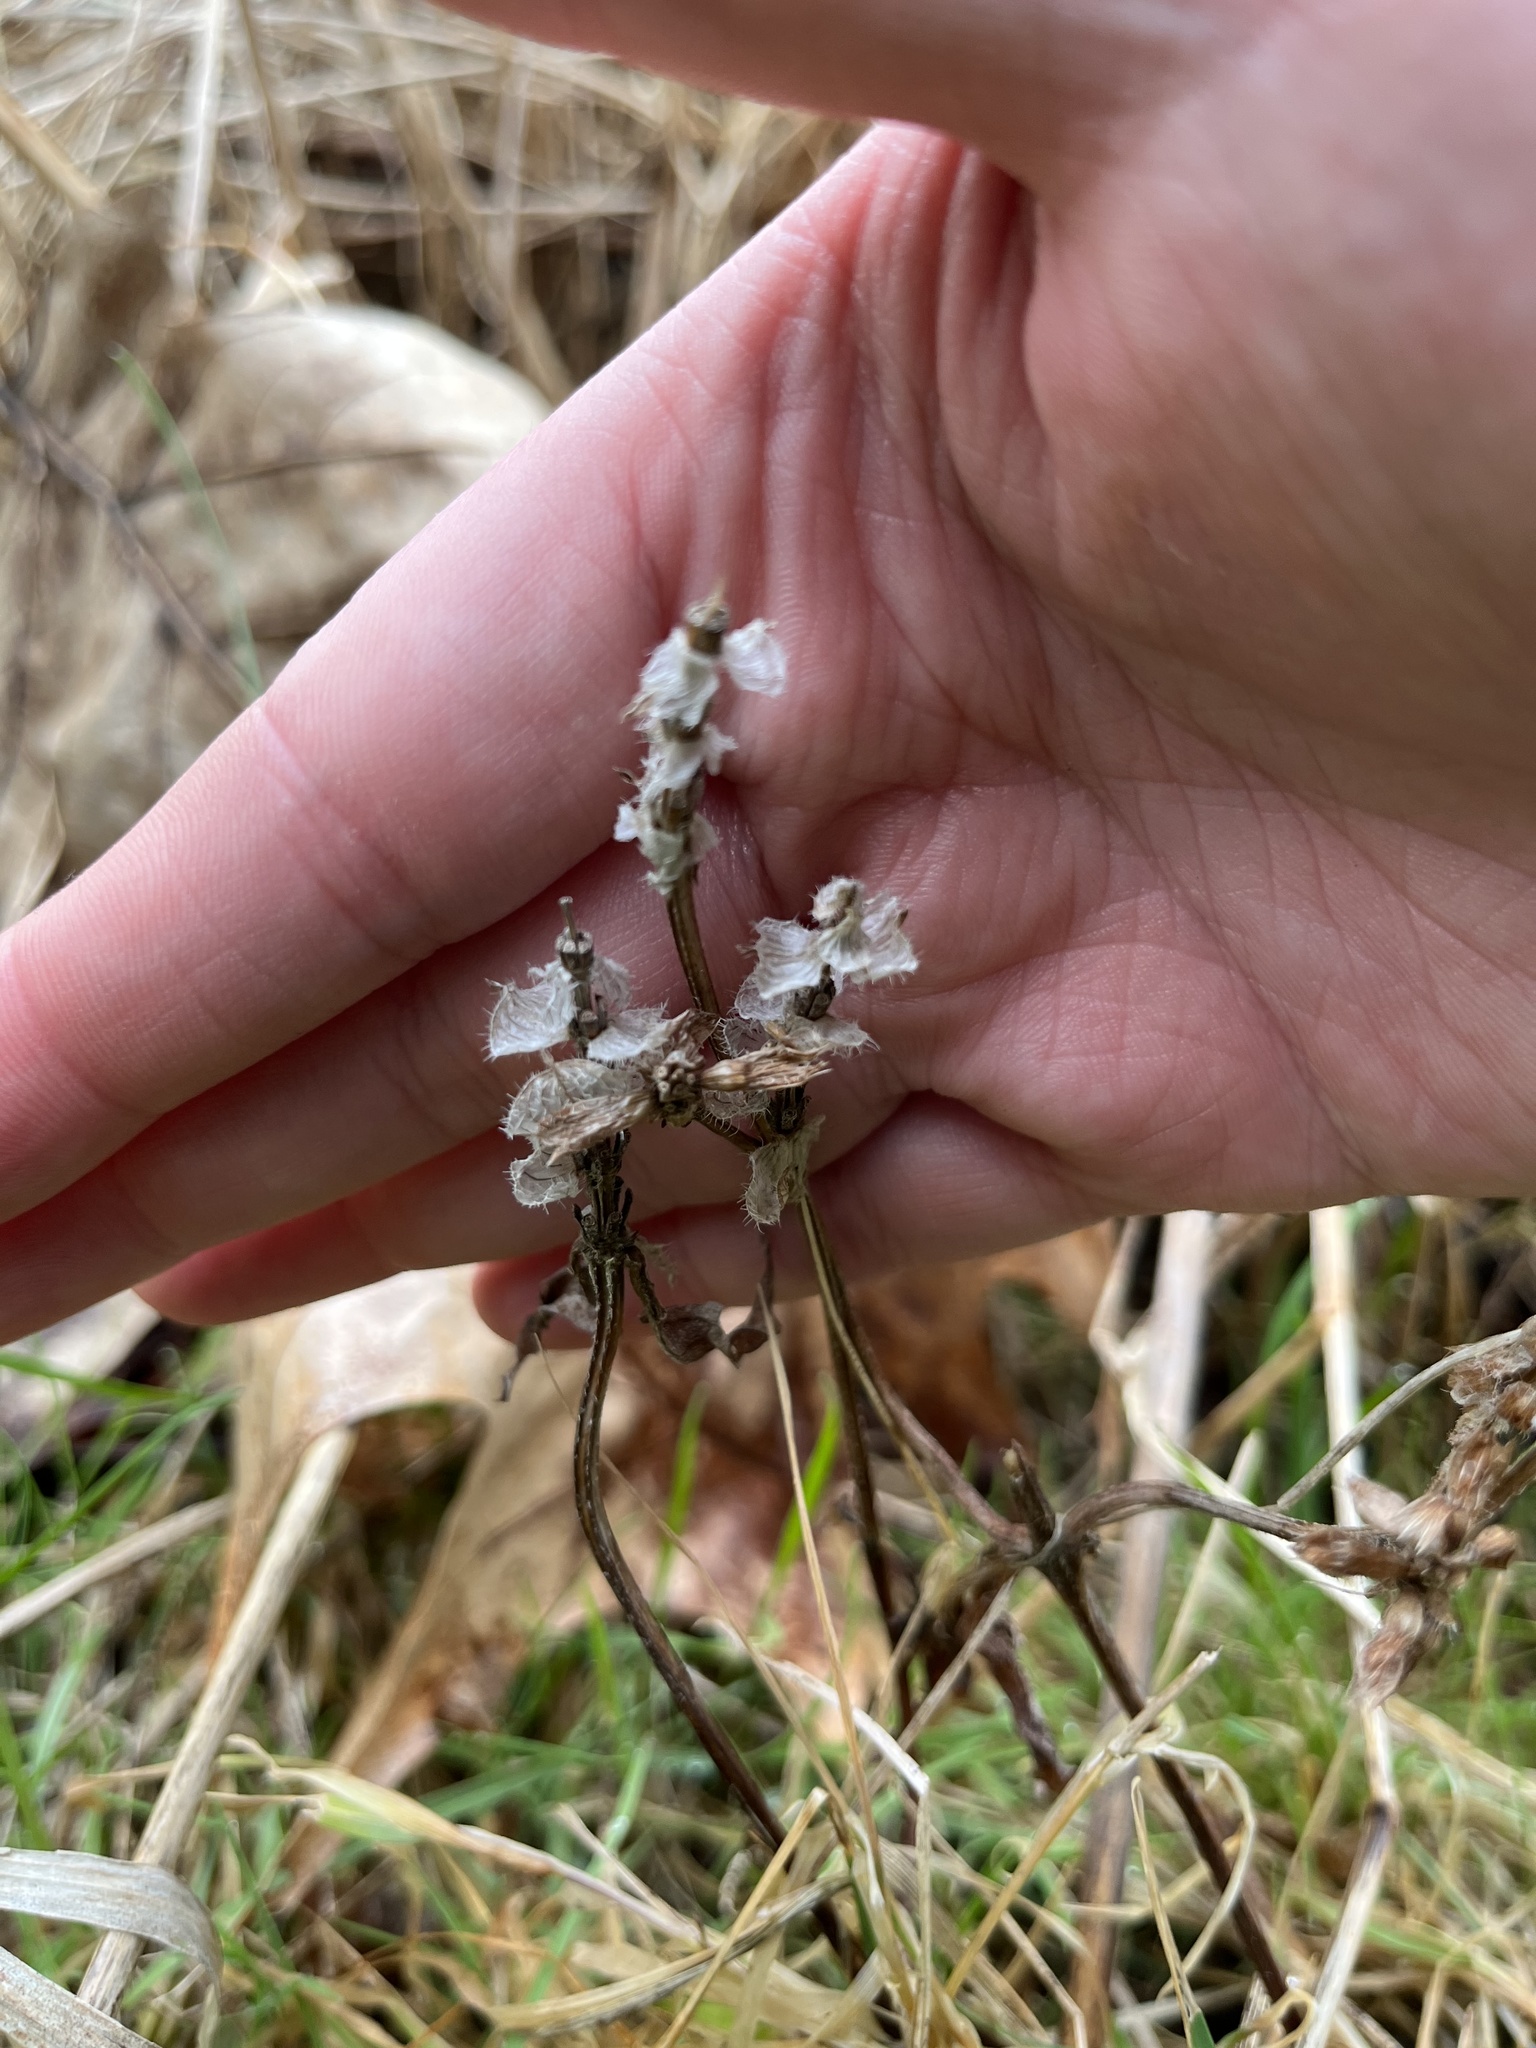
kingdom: Plantae
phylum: Tracheophyta
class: Magnoliopsida
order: Lamiales
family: Lamiaceae
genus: Prunella
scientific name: Prunella vulgaris
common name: Heal-all
